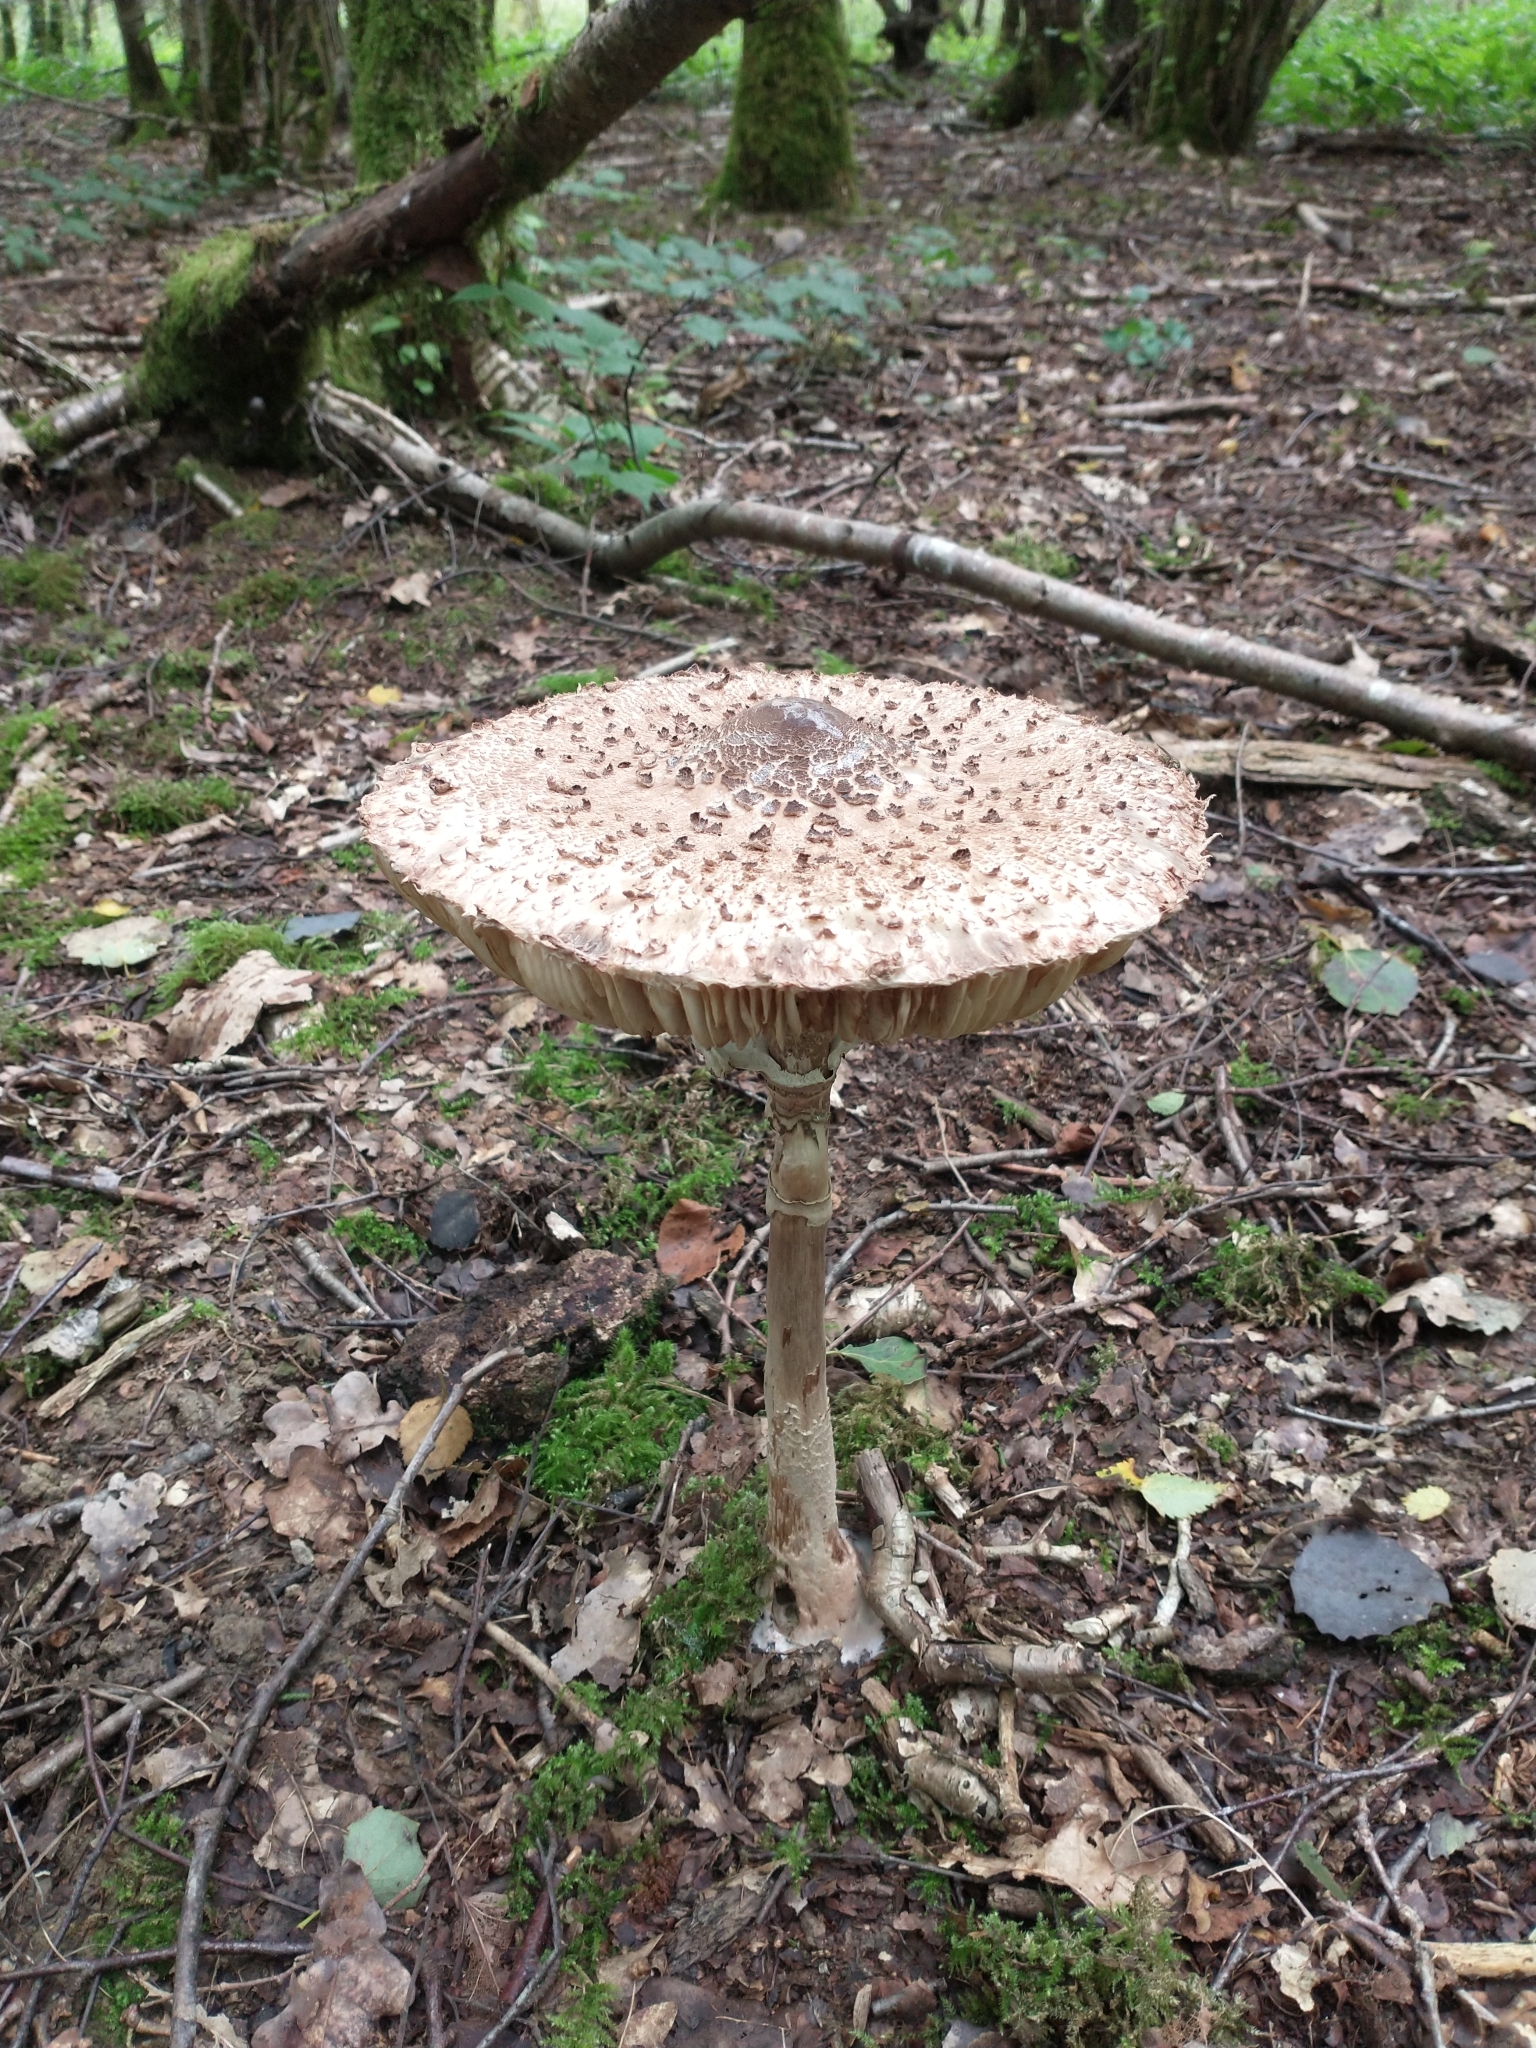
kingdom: Fungi
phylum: Basidiomycota
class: Agaricomycetes
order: Agaricales
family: Agaricaceae
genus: Macrolepiota
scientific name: Macrolepiota procera
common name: Parasol
